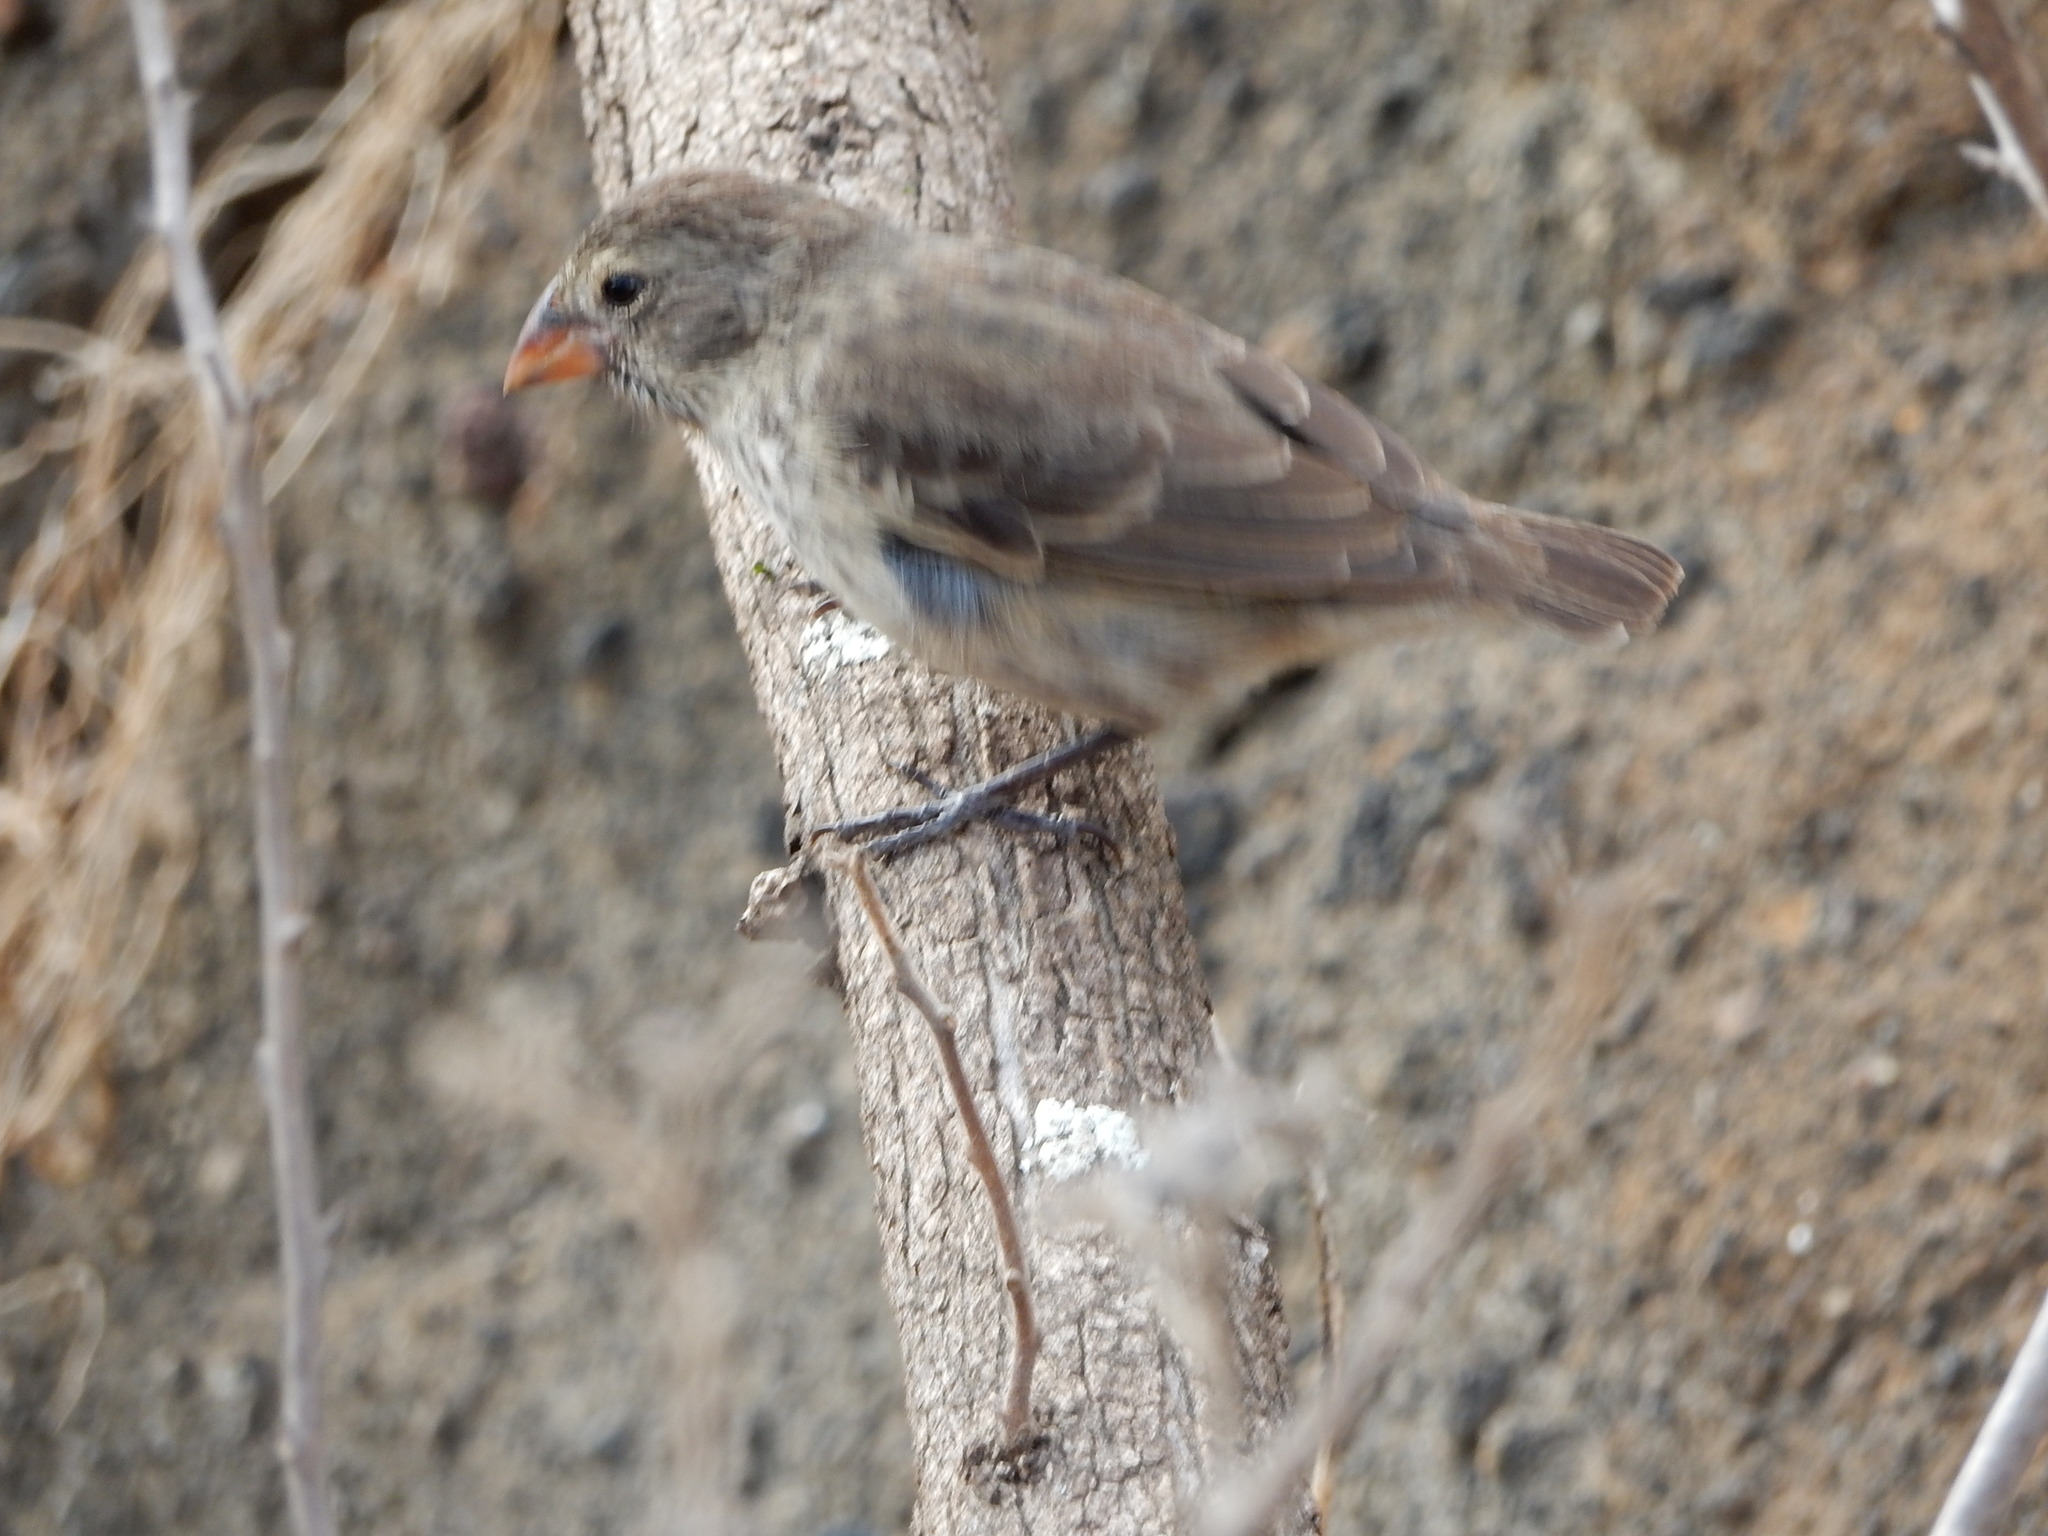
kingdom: Animalia
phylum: Chordata
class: Aves
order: Passeriformes
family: Thraupidae
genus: Geospiza
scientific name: Geospiza fuliginosa
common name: Small ground finch
